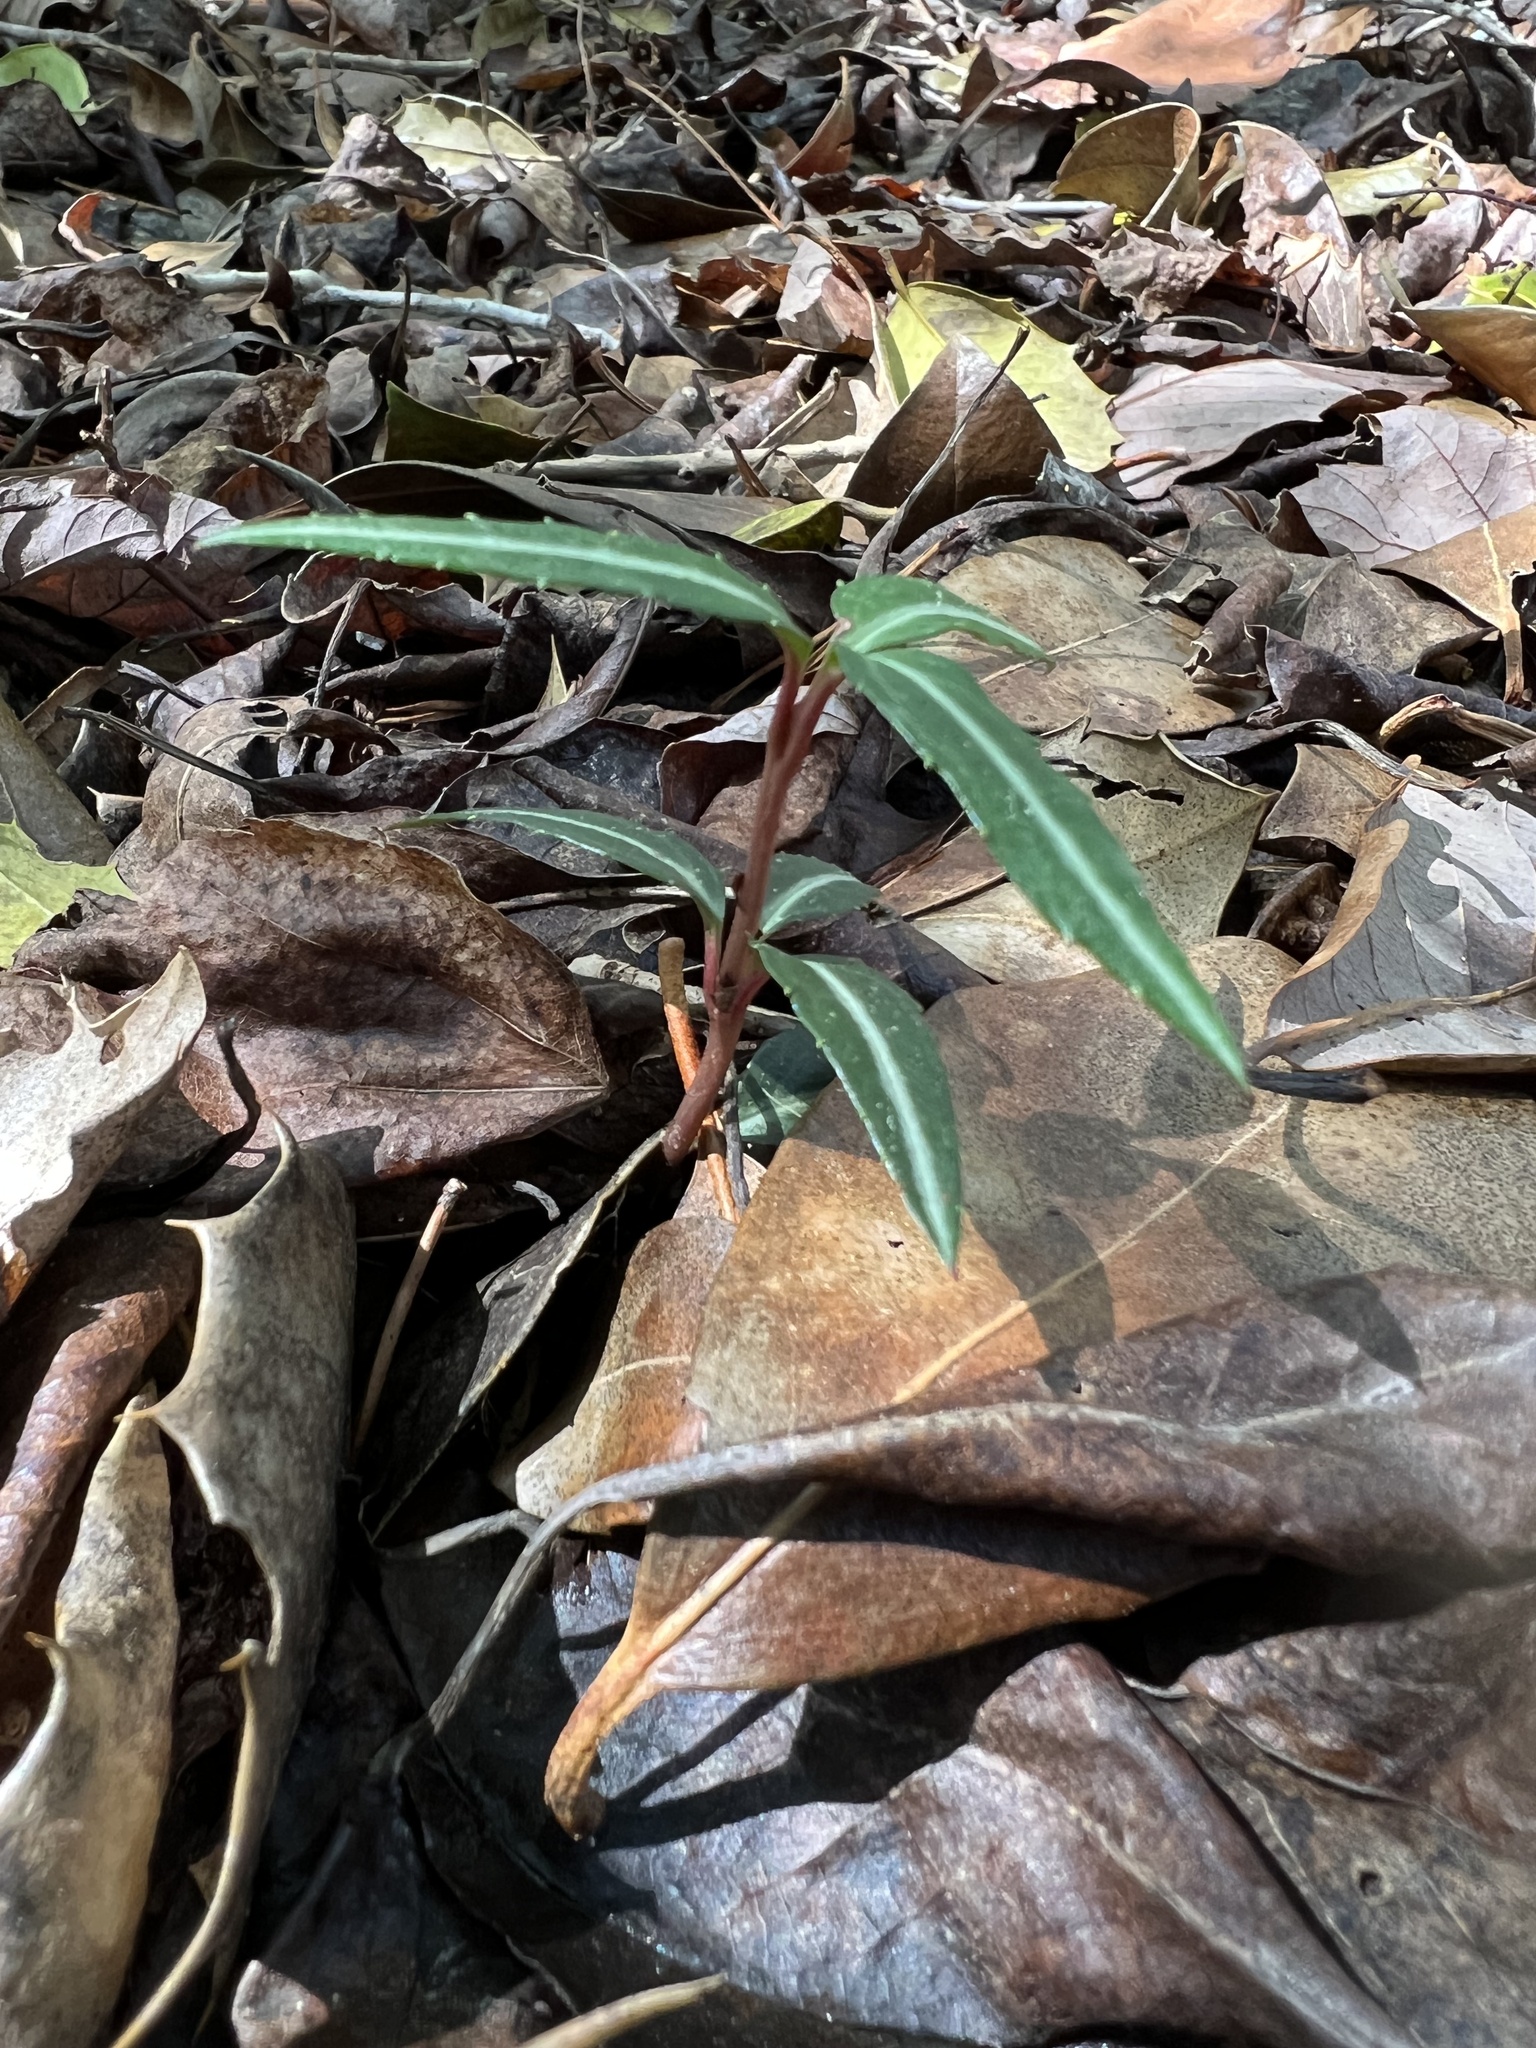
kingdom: Plantae
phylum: Tracheophyta
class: Magnoliopsida
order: Ericales
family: Ericaceae
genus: Chimaphila
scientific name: Chimaphila maculata
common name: Spotted pipsissewa
